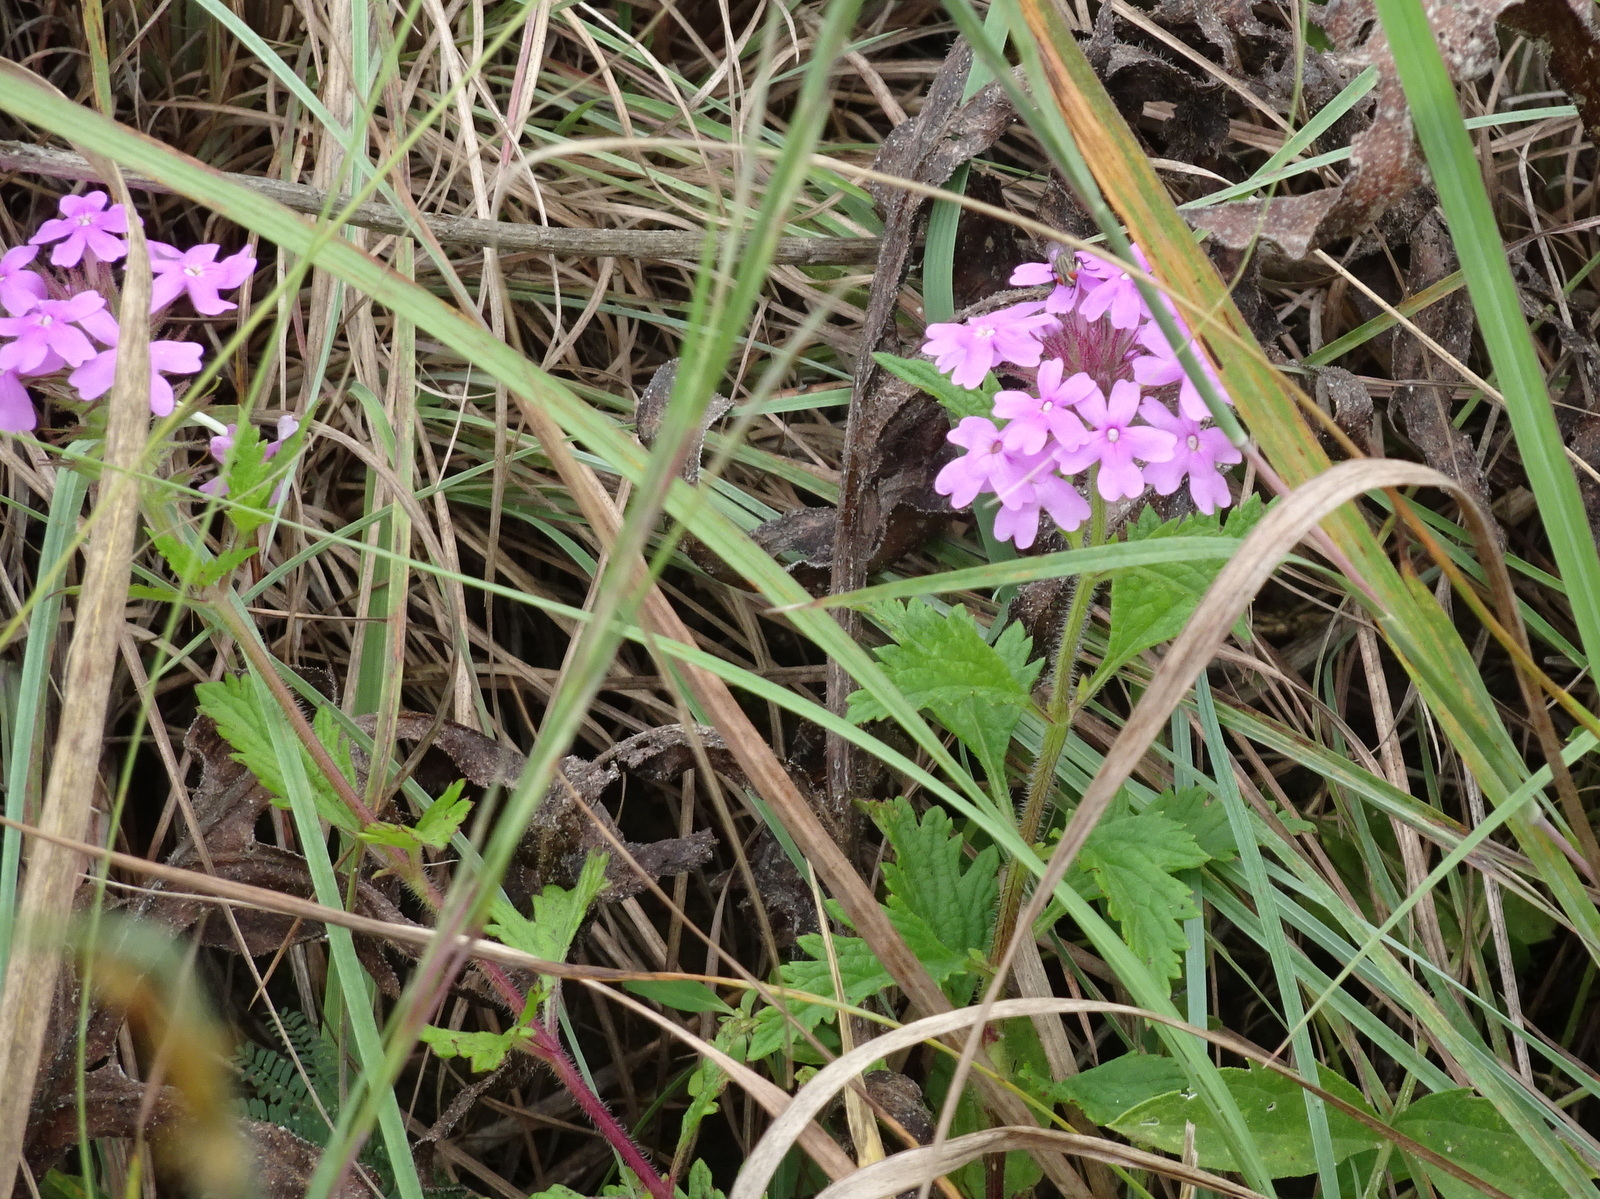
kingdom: Plantae
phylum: Tracheophyta
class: Magnoliopsida
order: Lamiales
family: Verbenaceae
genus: Verbena
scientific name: Verbena canadensis
